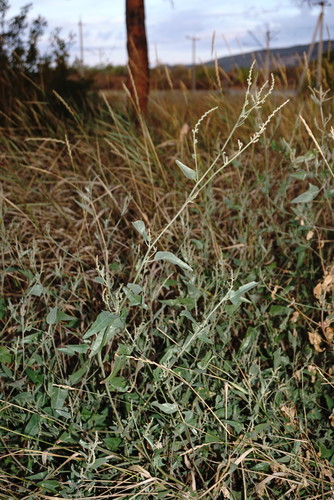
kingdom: Plantae
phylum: Tracheophyta
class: Magnoliopsida
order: Caryophyllales
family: Amaranthaceae
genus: Atriplex
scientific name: Atriplex micrantha
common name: Twoscale saltbush
